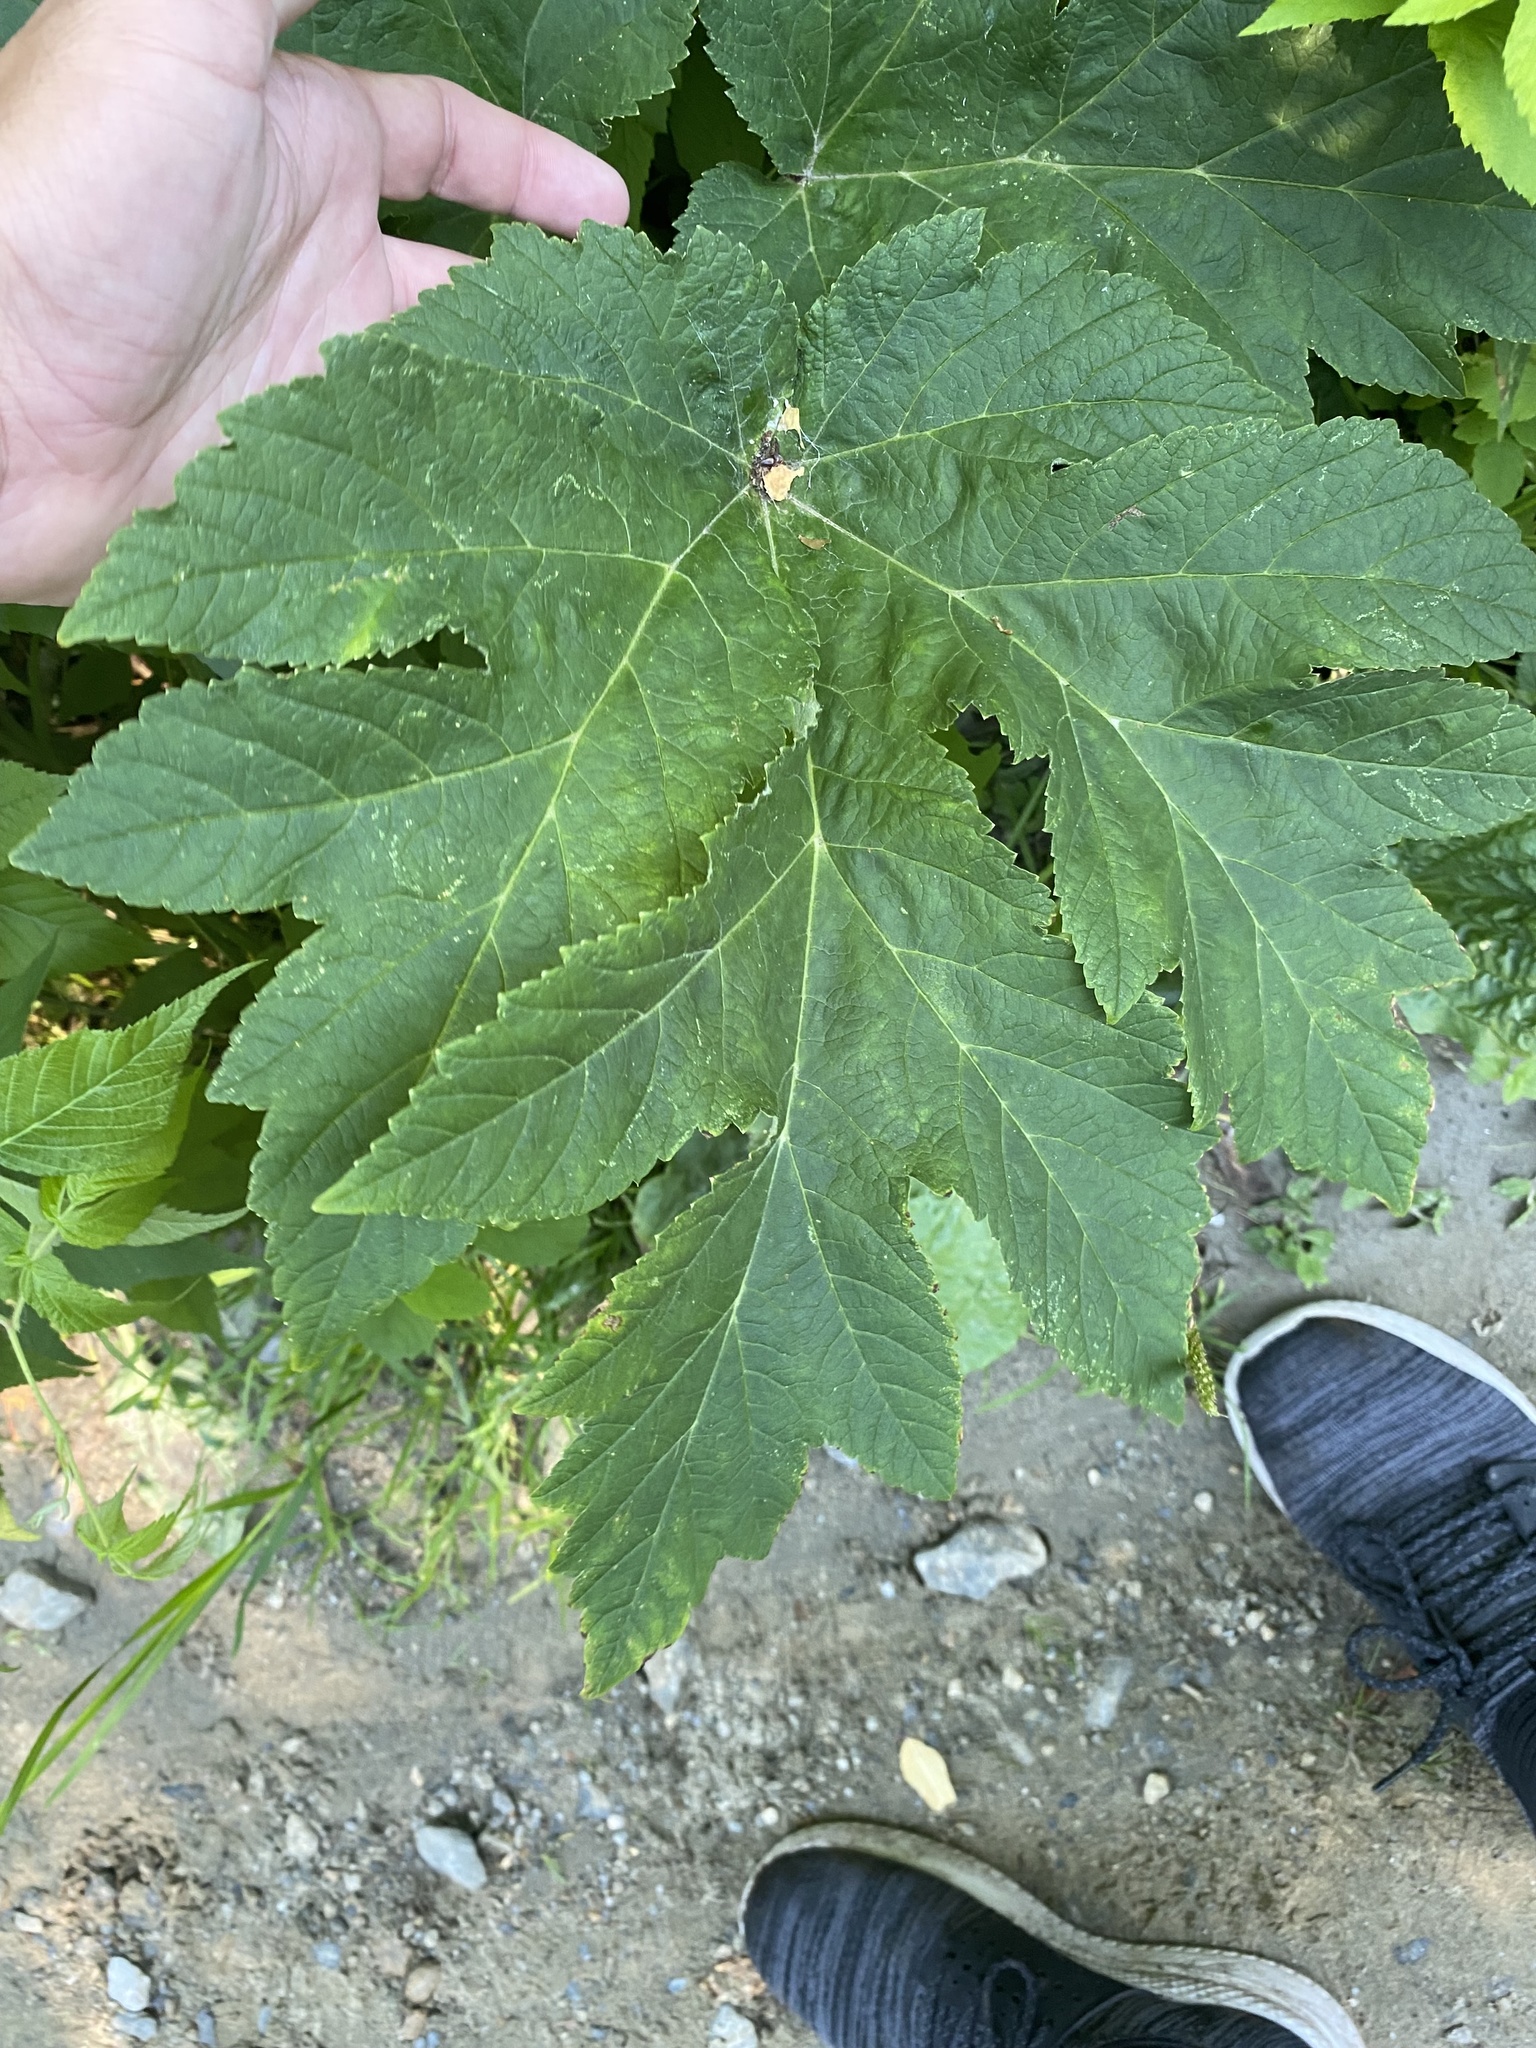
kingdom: Plantae
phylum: Tracheophyta
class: Magnoliopsida
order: Apiales
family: Apiaceae
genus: Heracleum
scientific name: Heracleum maximum
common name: American cow parsnip
